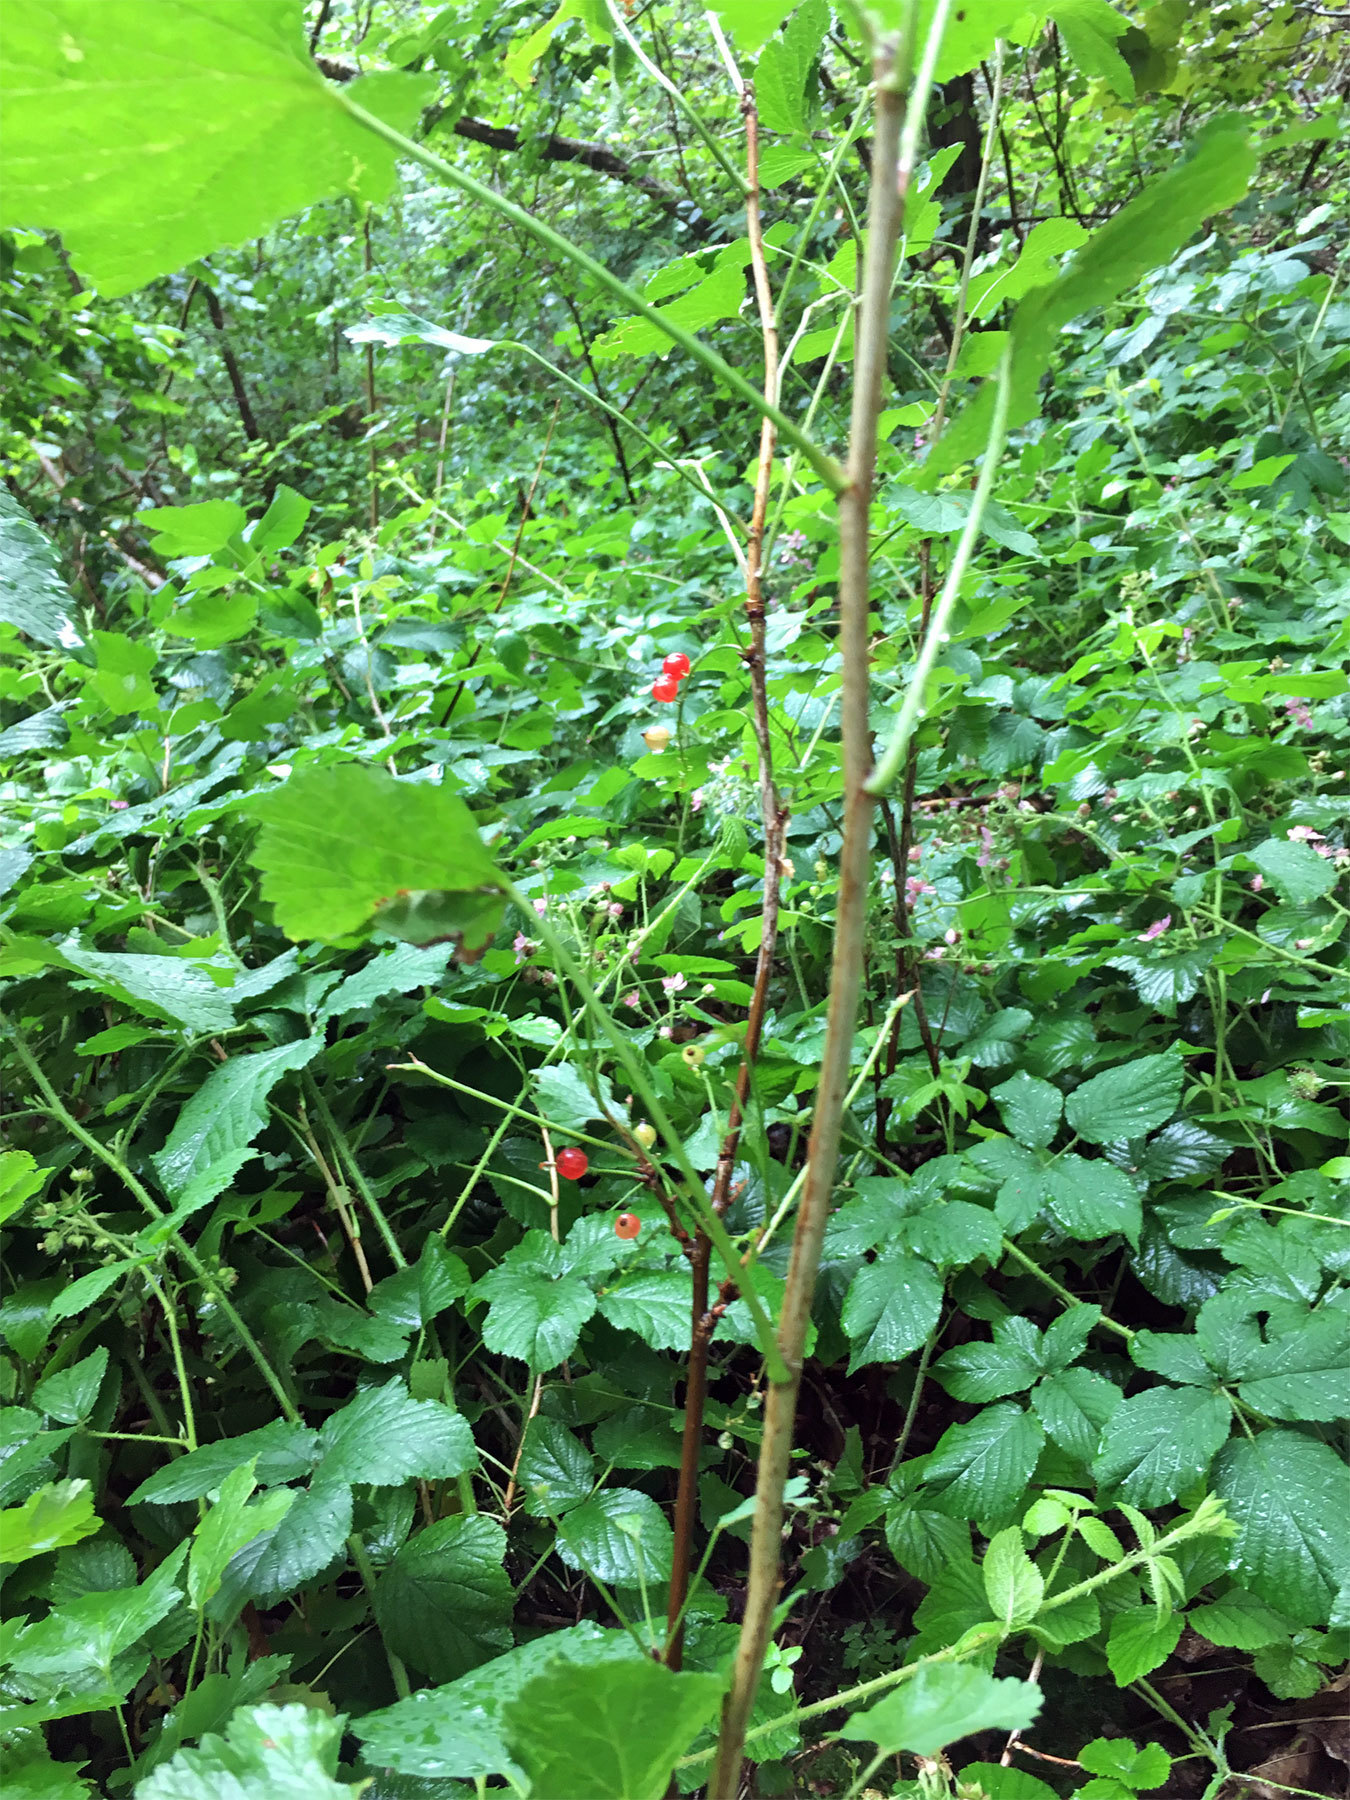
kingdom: Plantae
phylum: Tracheophyta
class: Magnoliopsida
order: Saxifragales
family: Grossulariaceae
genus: Ribes
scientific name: Ribes rubrum
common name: Red currant
